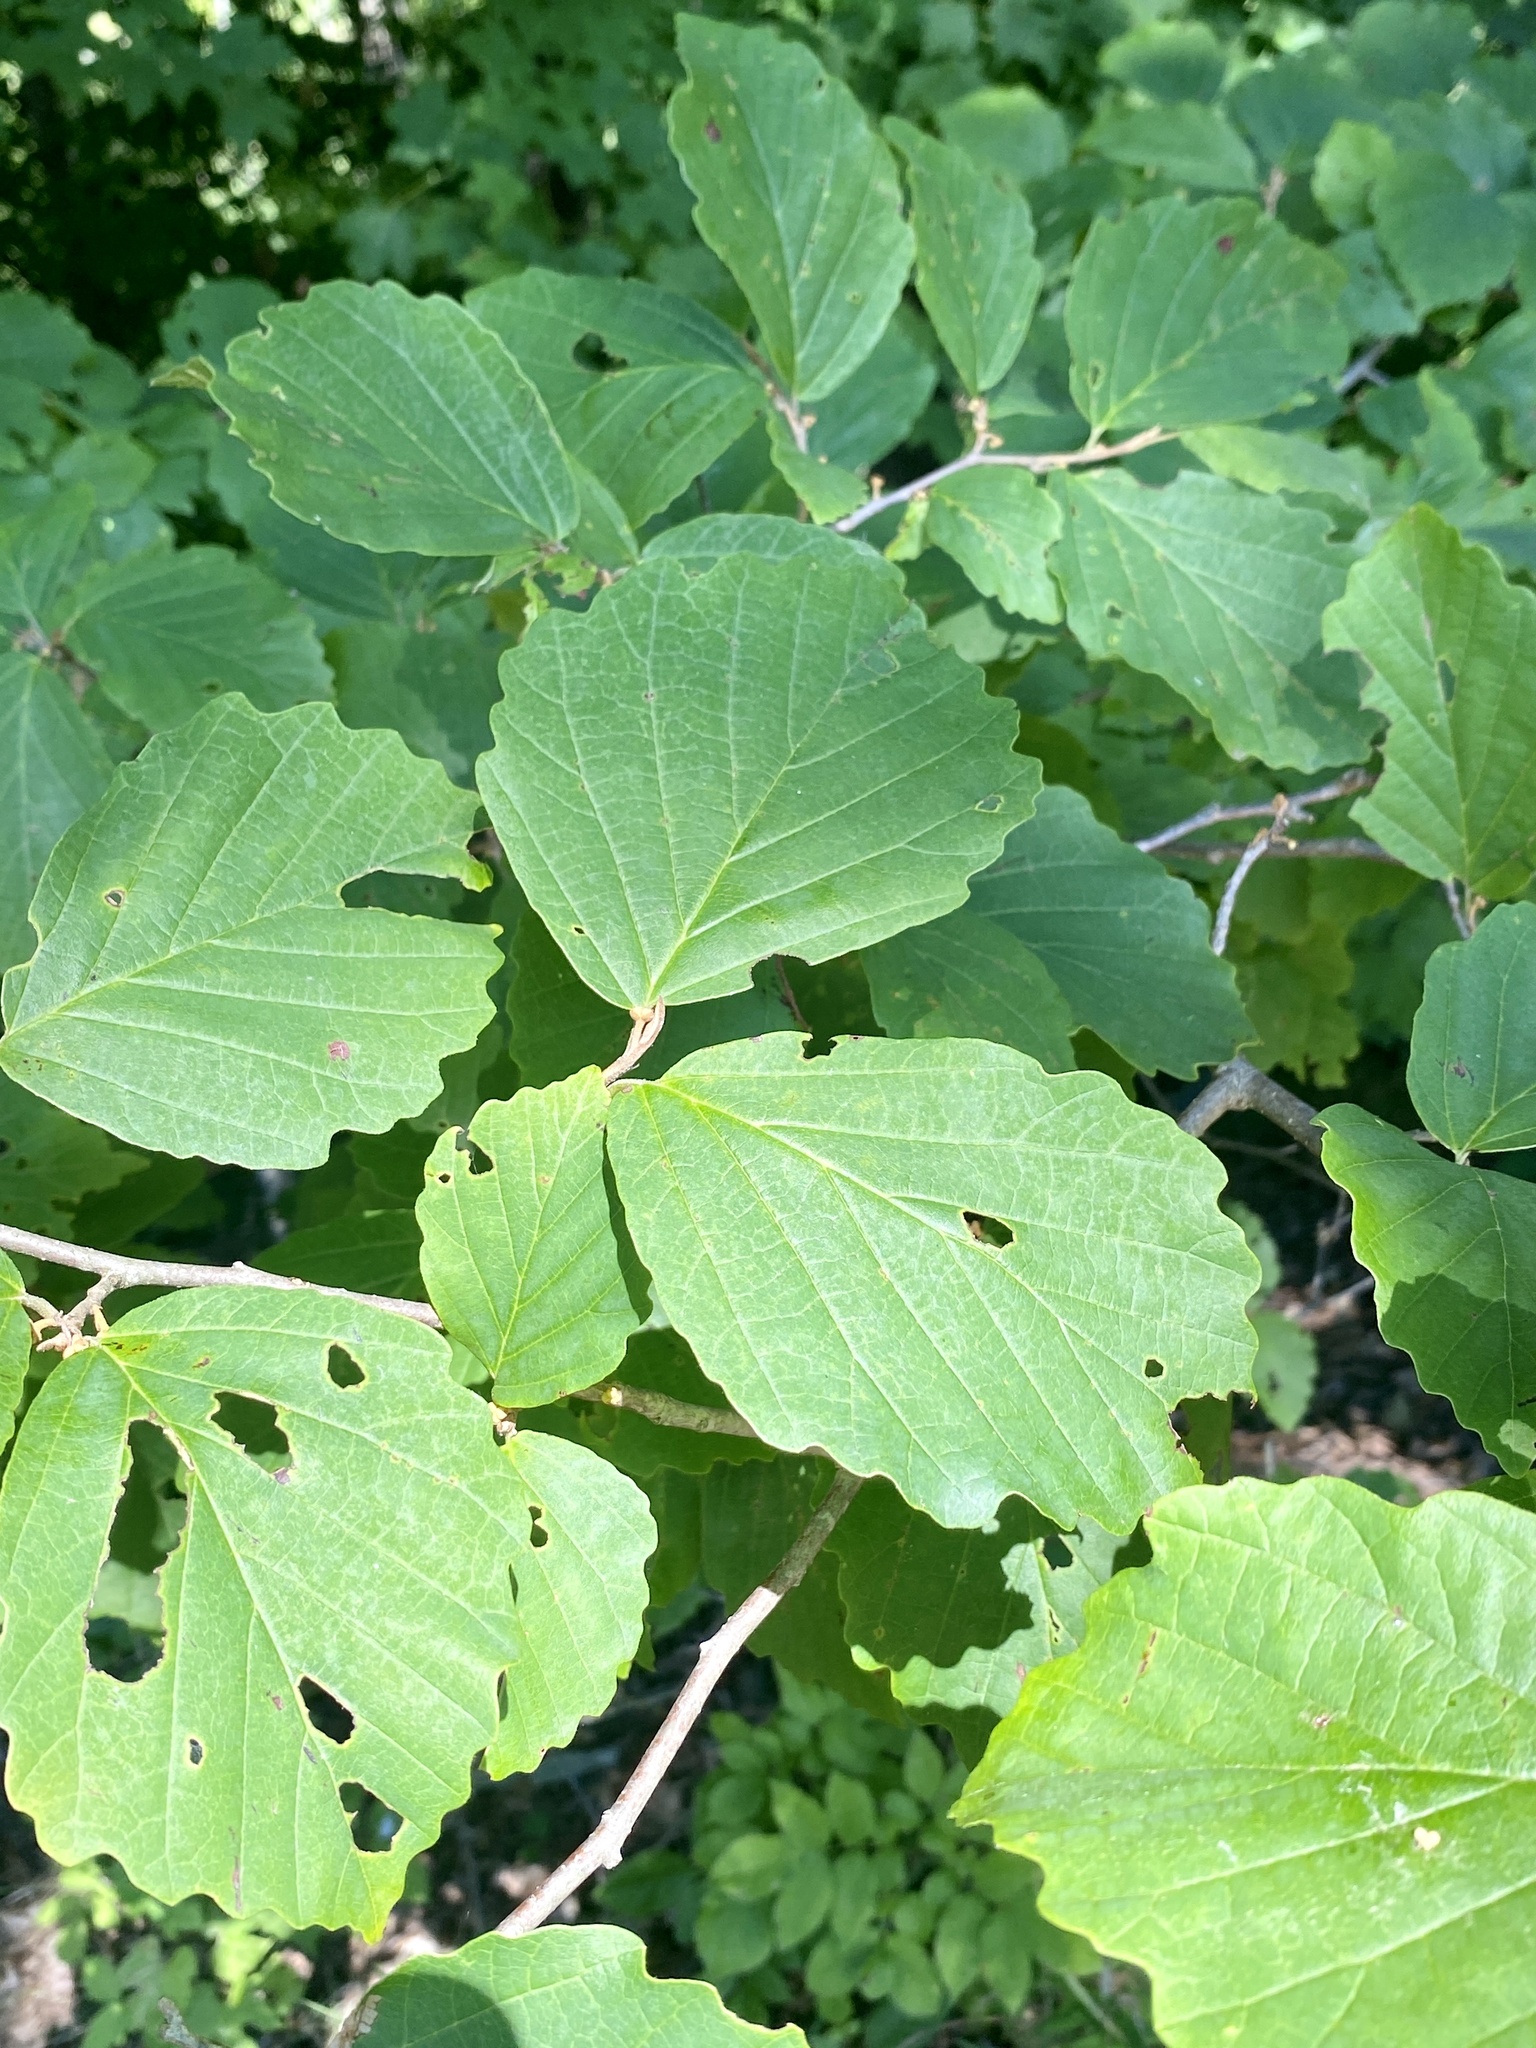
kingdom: Plantae
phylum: Tracheophyta
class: Magnoliopsida
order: Saxifragales
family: Hamamelidaceae
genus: Hamamelis
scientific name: Hamamelis virginiana
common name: Witch-hazel
